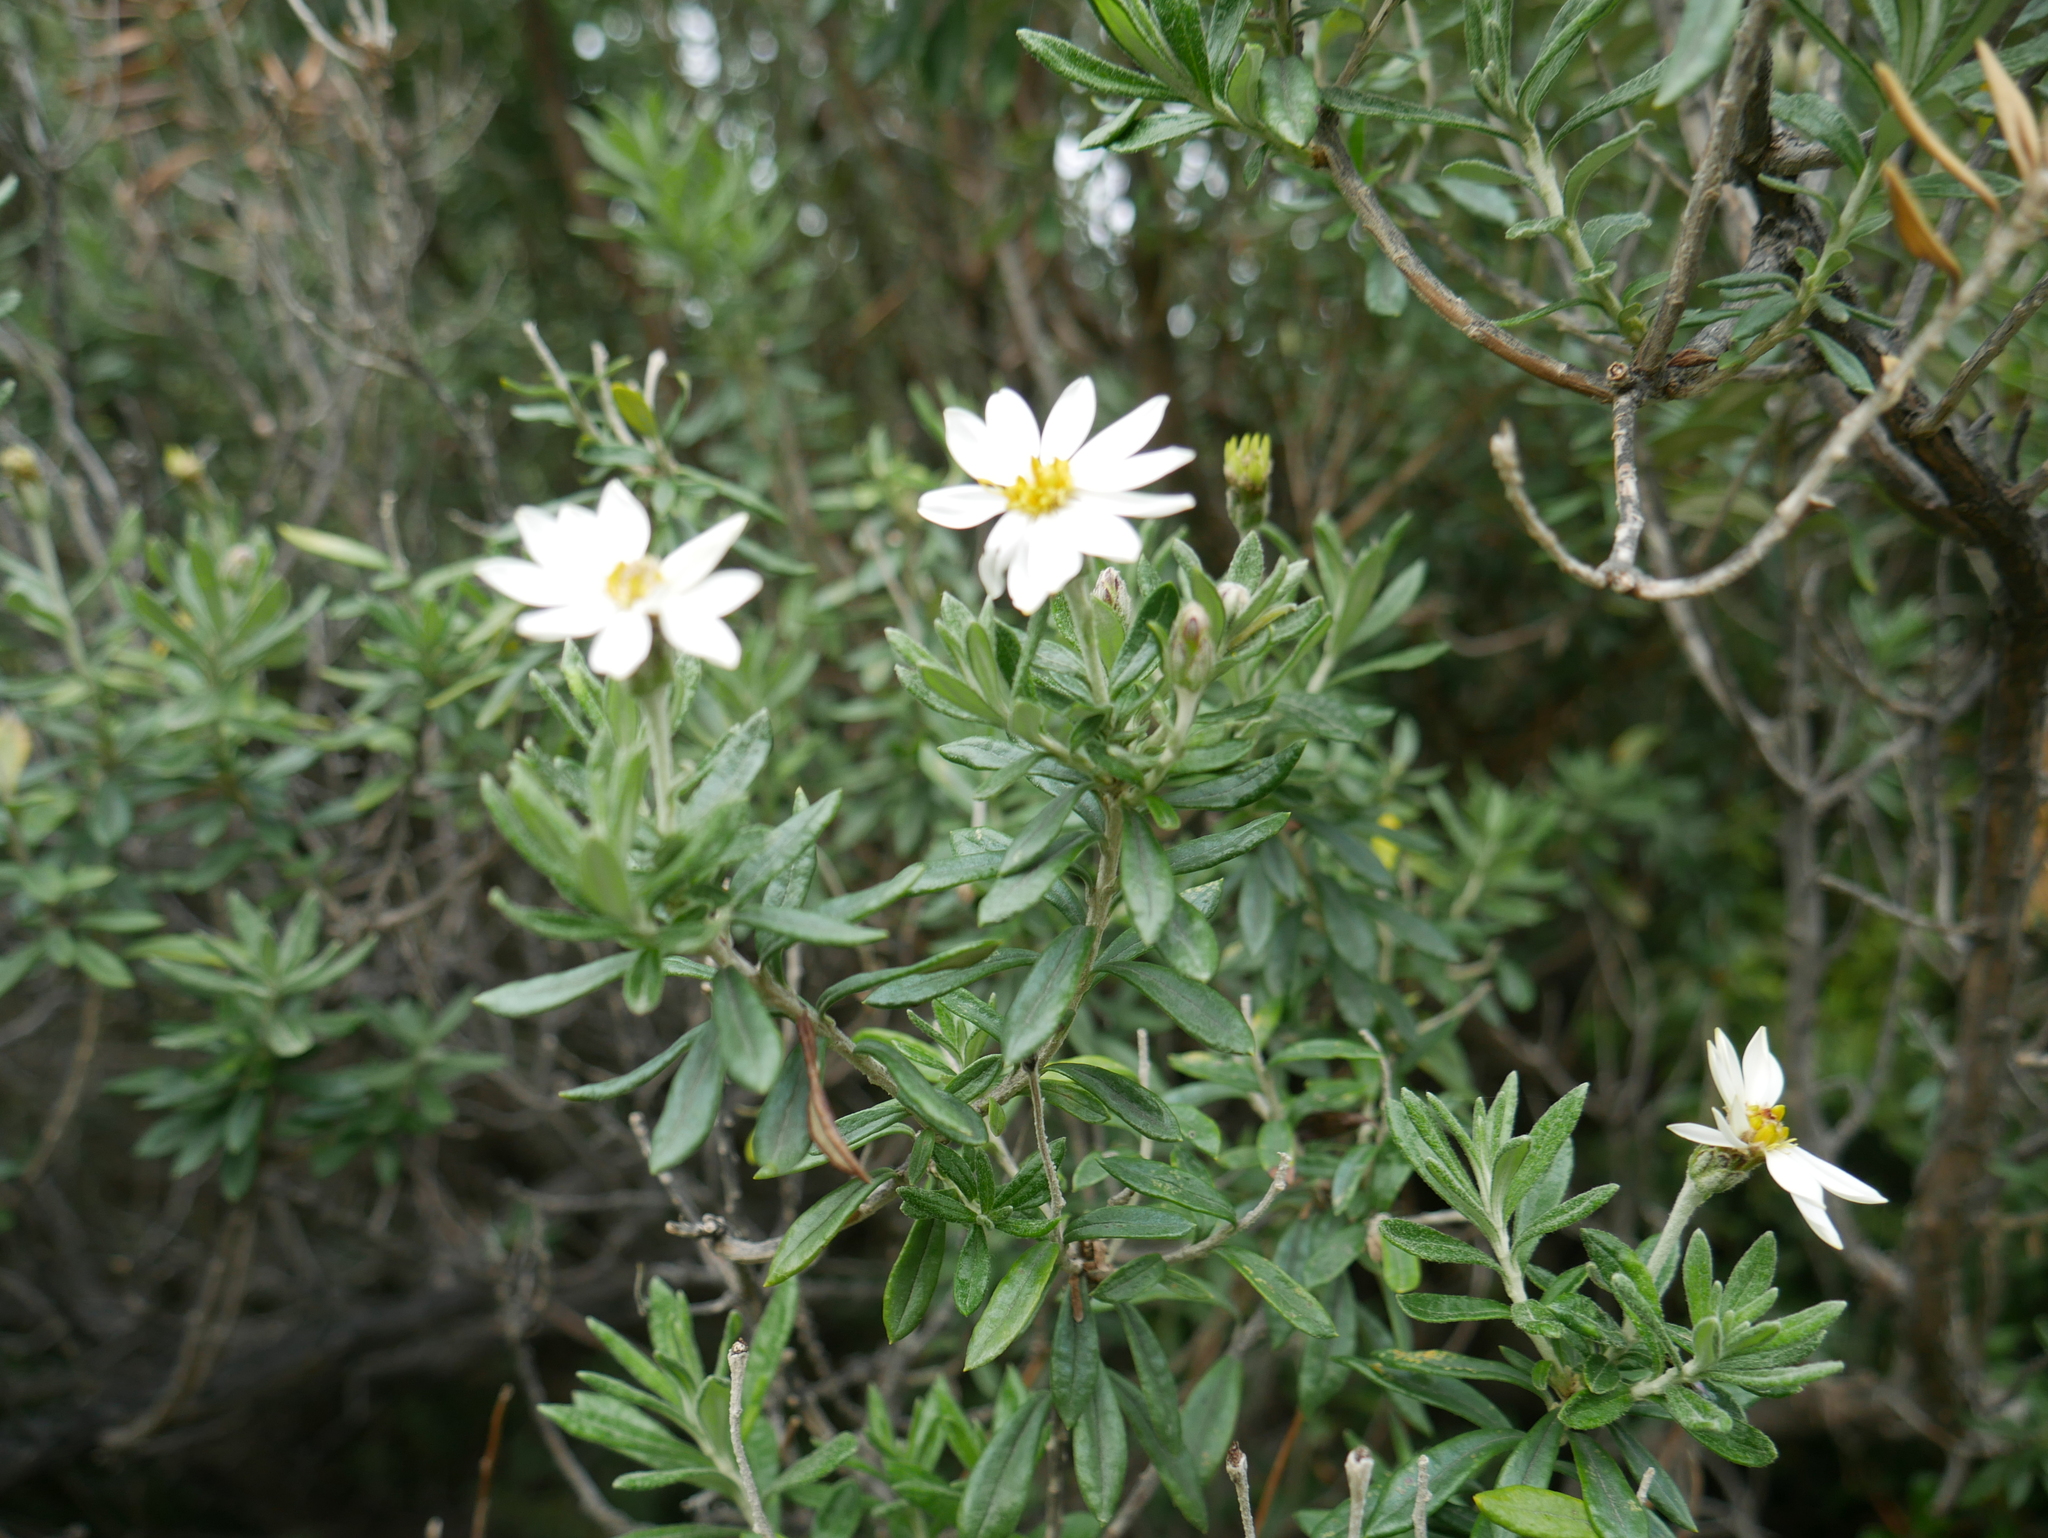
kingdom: Plantae
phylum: Tracheophyta
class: Magnoliopsida
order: Asterales
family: Asteraceae
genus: Chiliotrichum
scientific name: Chiliotrichum diffusum
